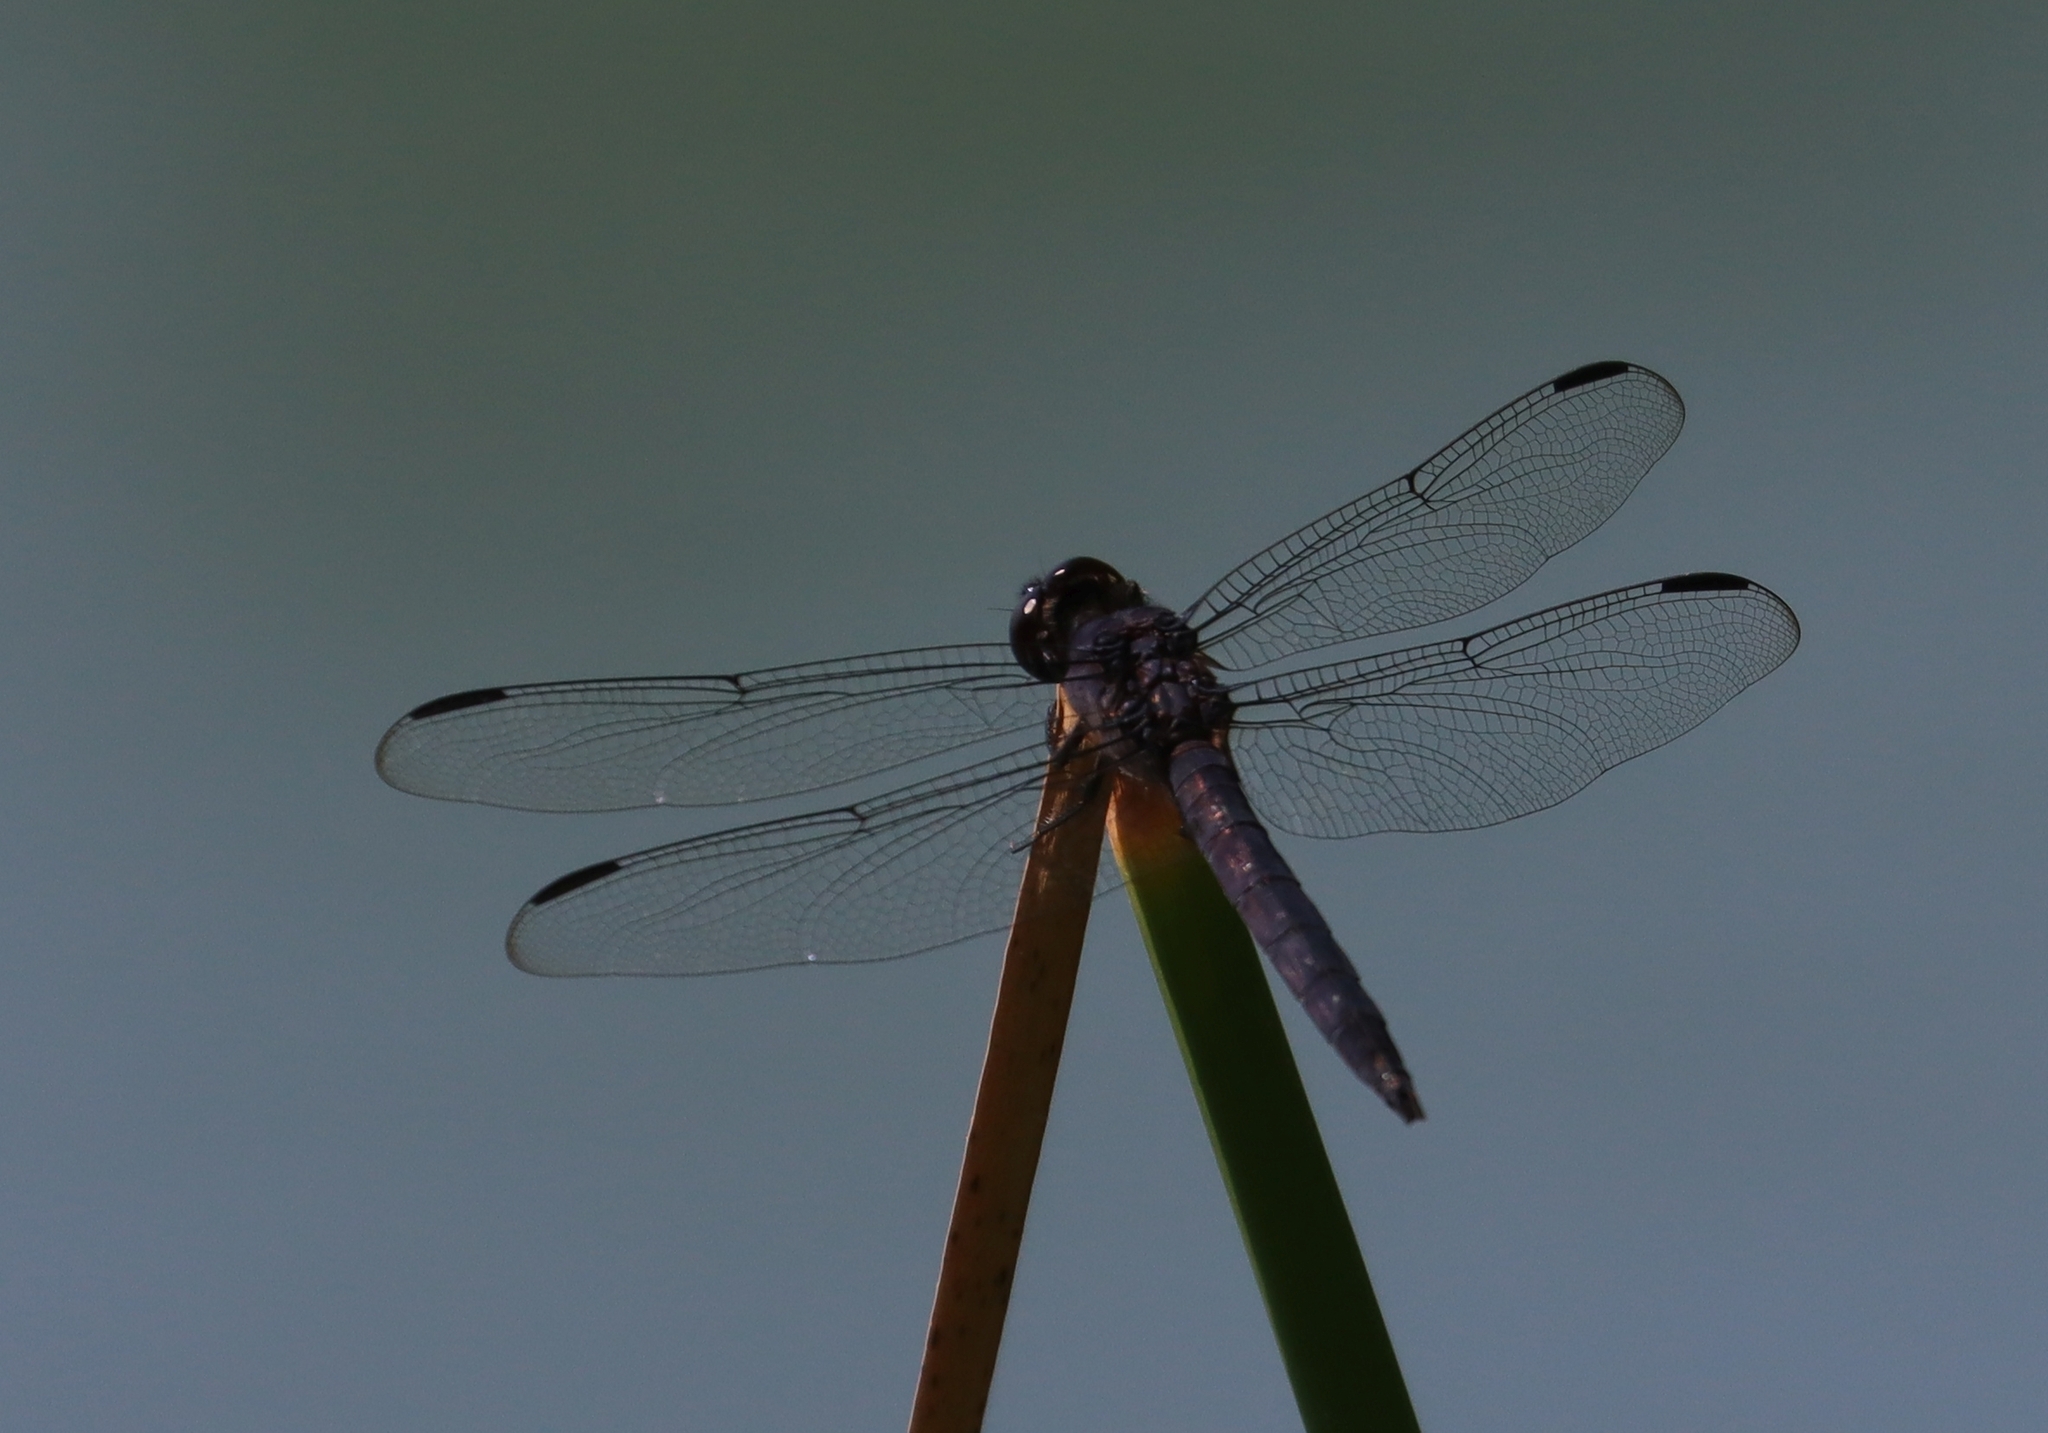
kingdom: Animalia
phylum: Arthropoda
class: Insecta
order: Odonata
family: Libellulidae
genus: Libellula
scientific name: Libellula incesta
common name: Slaty skimmer
